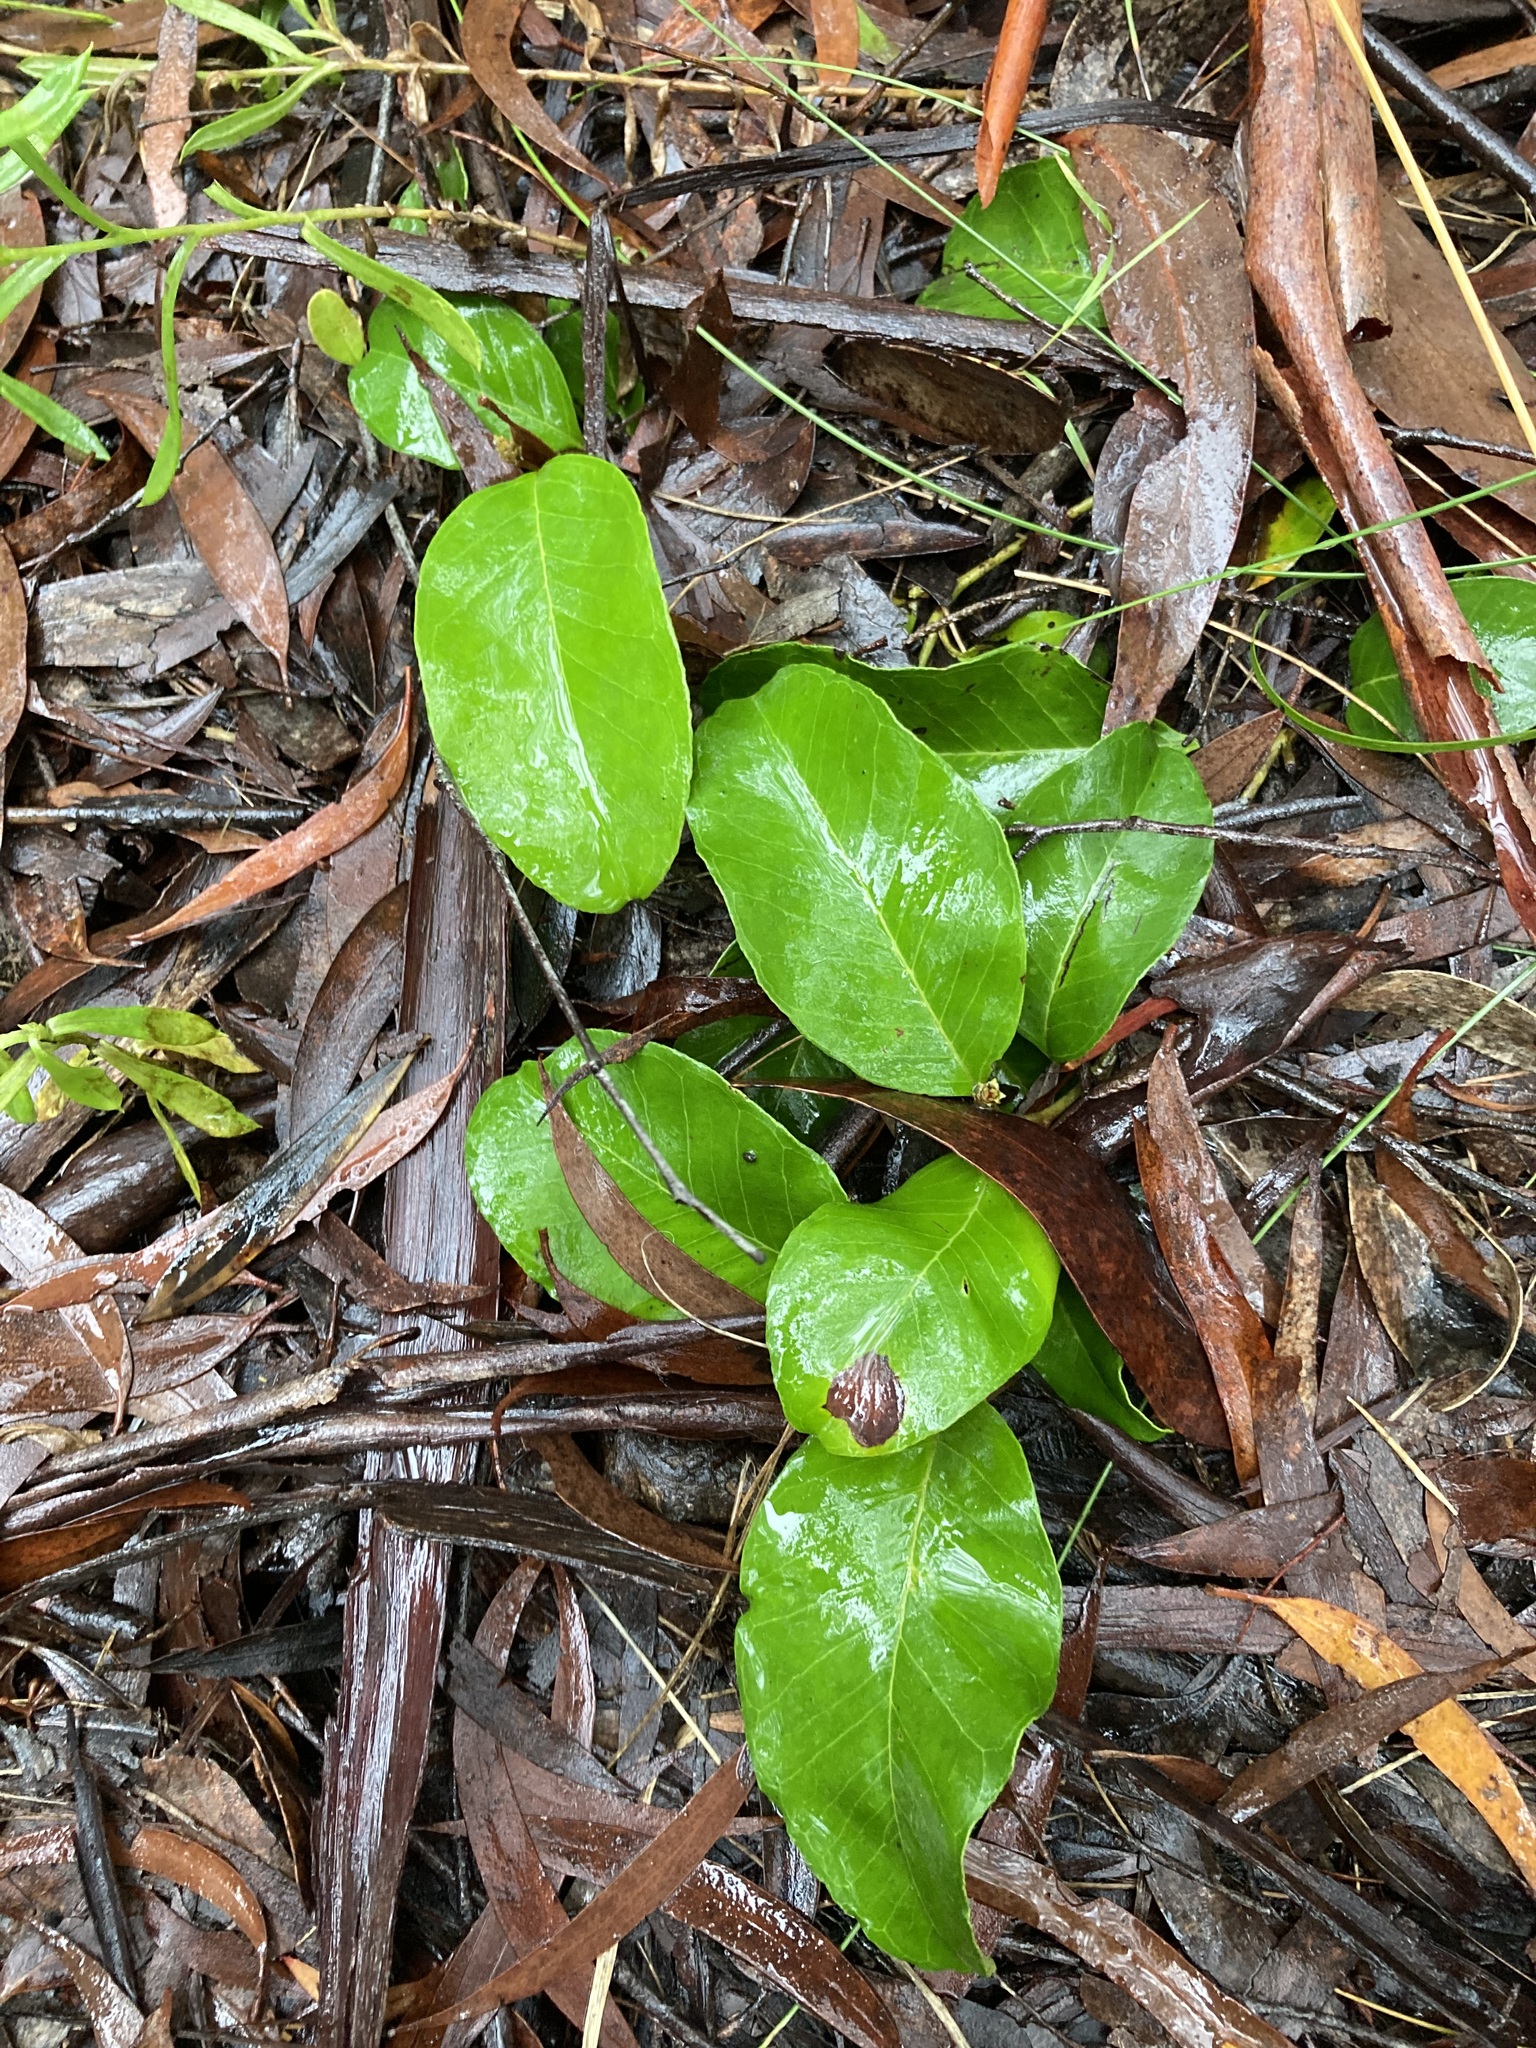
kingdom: Plantae
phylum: Tracheophyta
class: Magnoliopsida
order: Proteales
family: Proteaceae
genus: Grevillea
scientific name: Grevillea laurifolia
